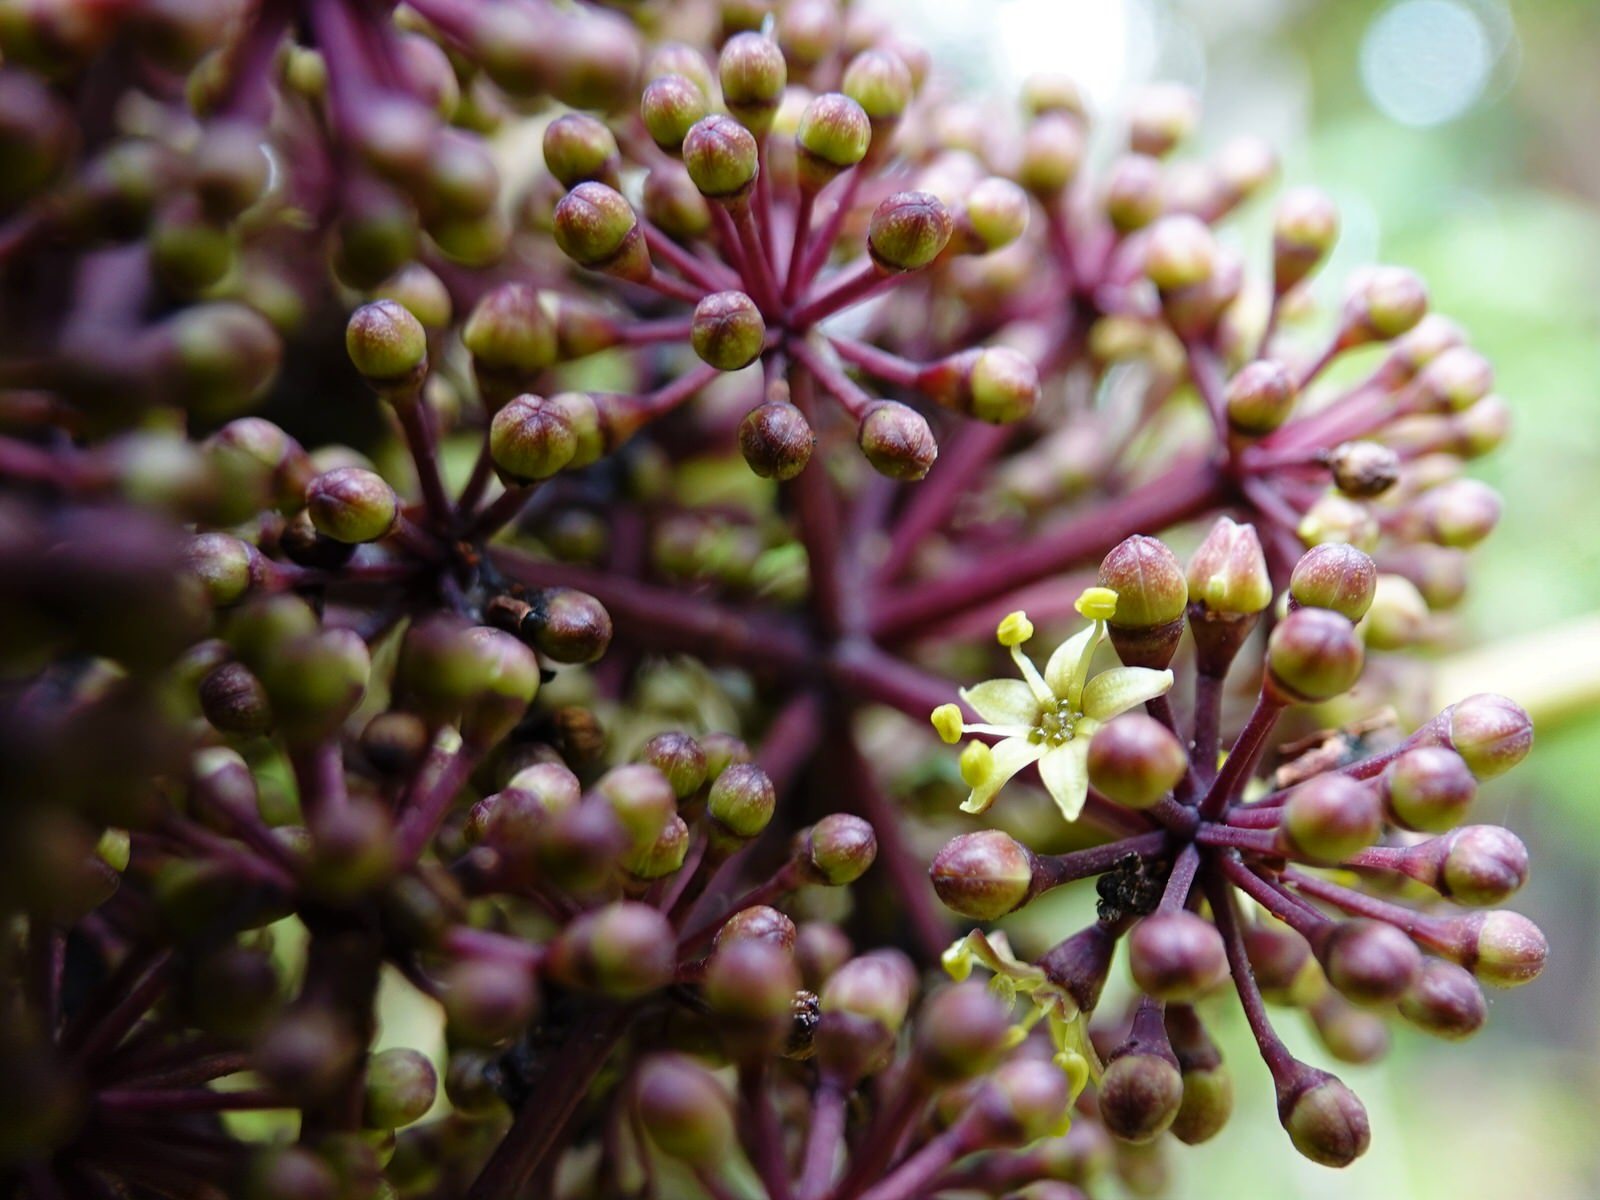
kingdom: Plantae
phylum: Tracheophyta
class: Magnoliopsida
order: Apiales
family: Araliaceae
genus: Neopanax
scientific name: Neopanax arboreus
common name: Five-fingers
